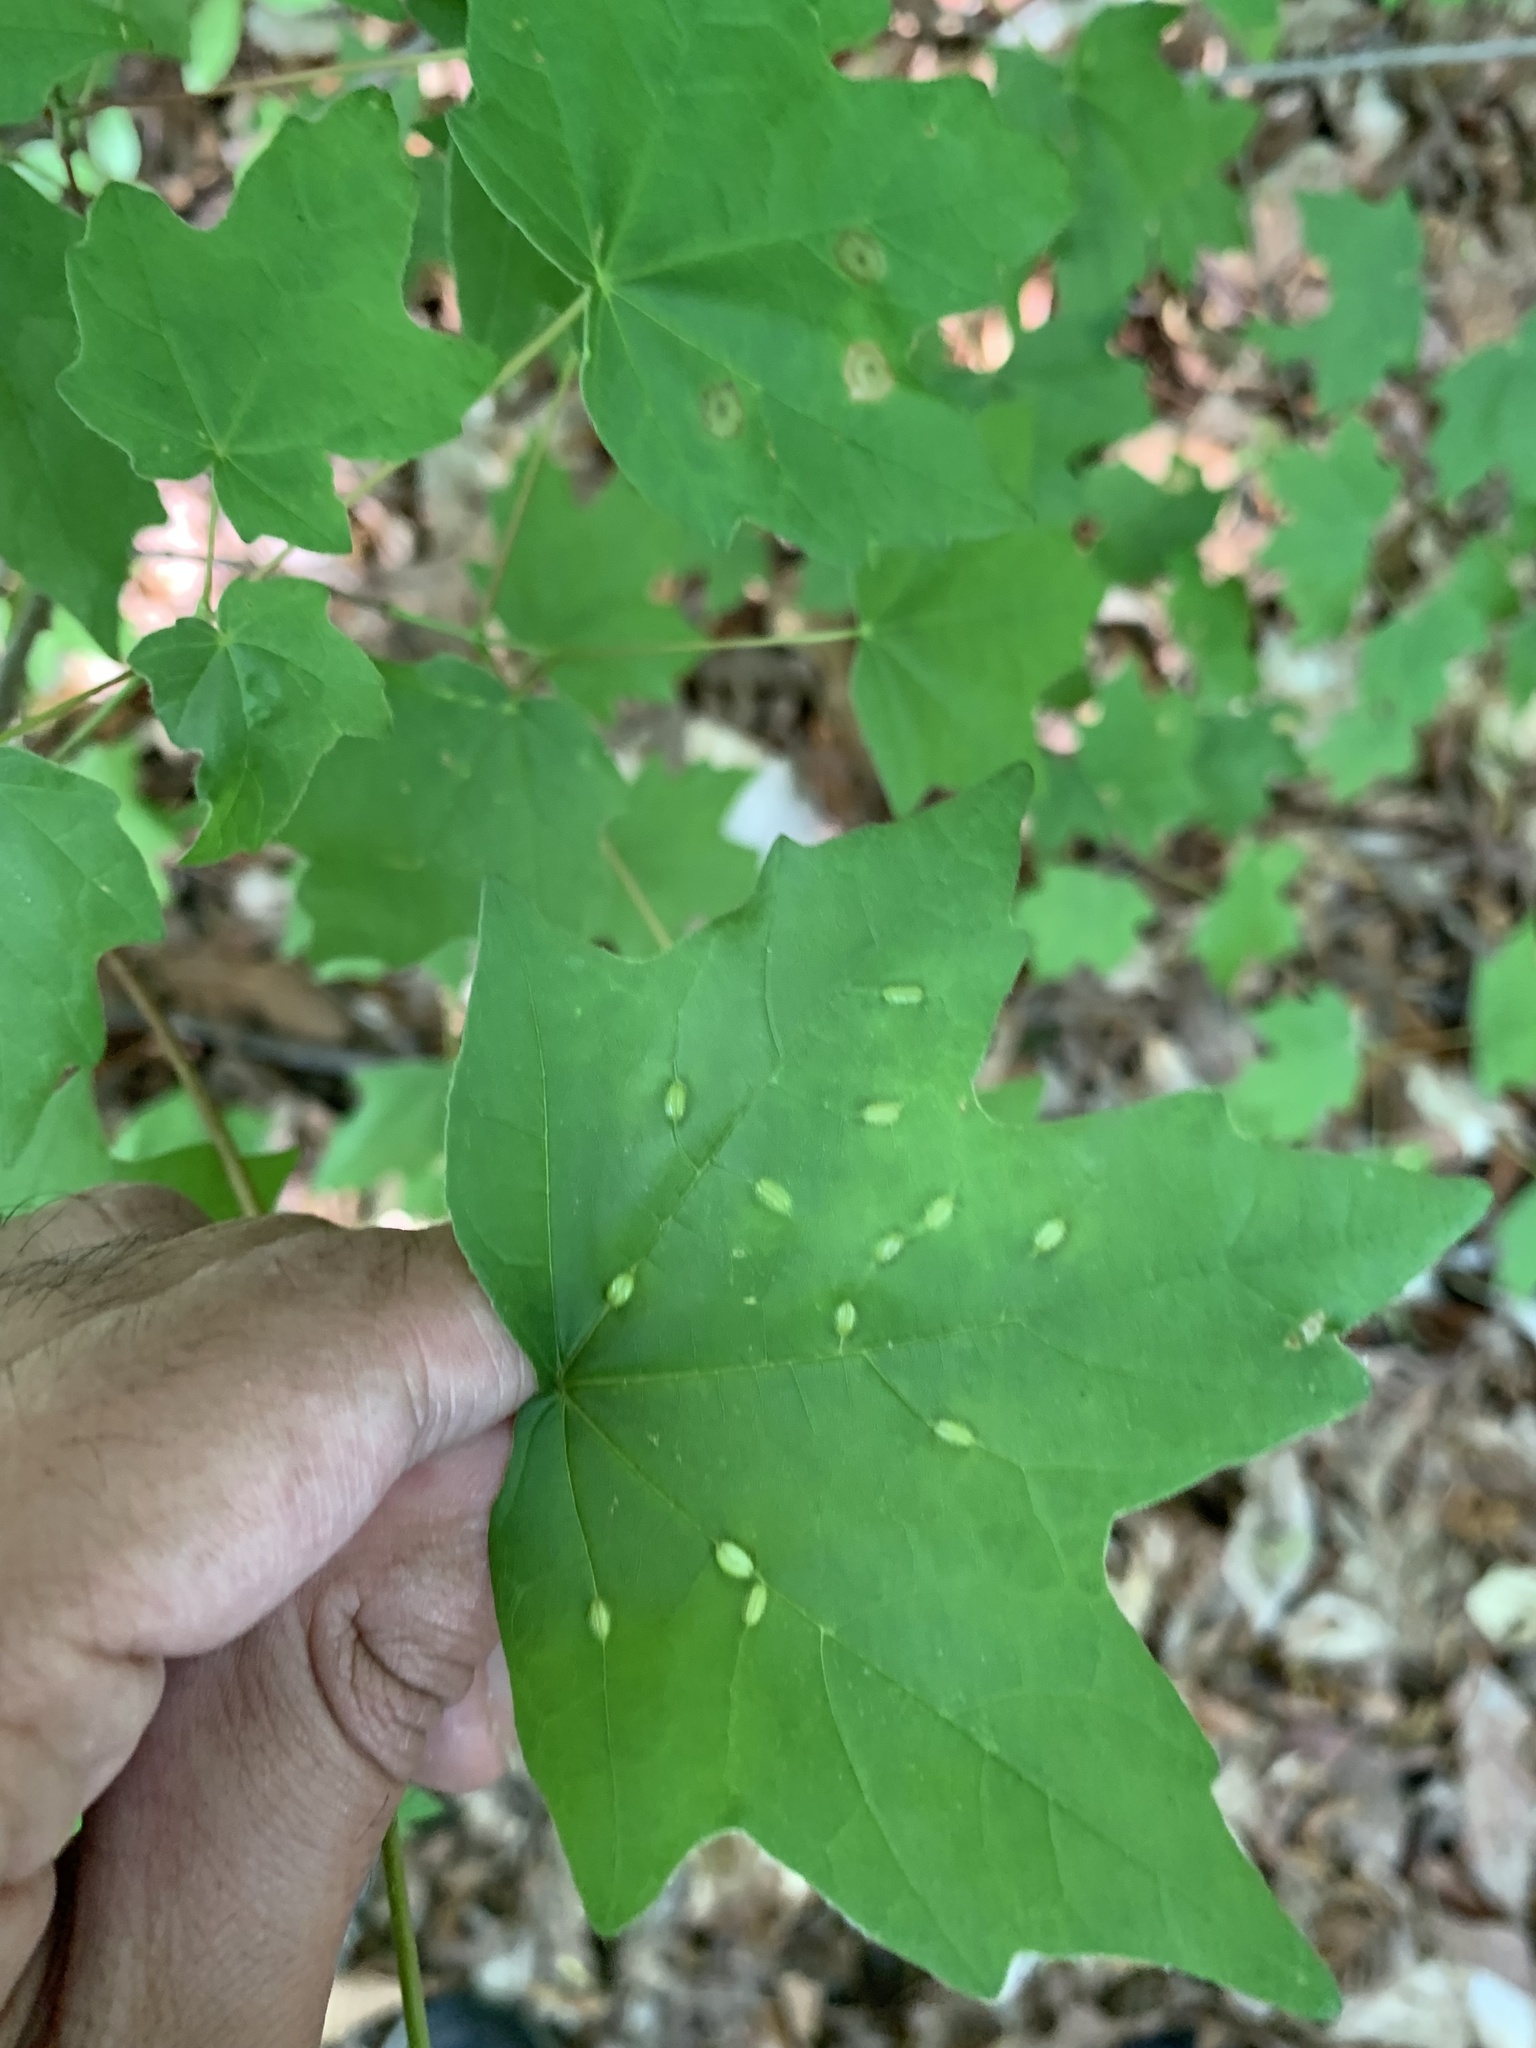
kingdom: Animalia
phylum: Arthropoda
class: Insecta
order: Diptera
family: Cecidomyiidae
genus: Dasineura
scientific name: Dasineura communis
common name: Gouty vein midge
